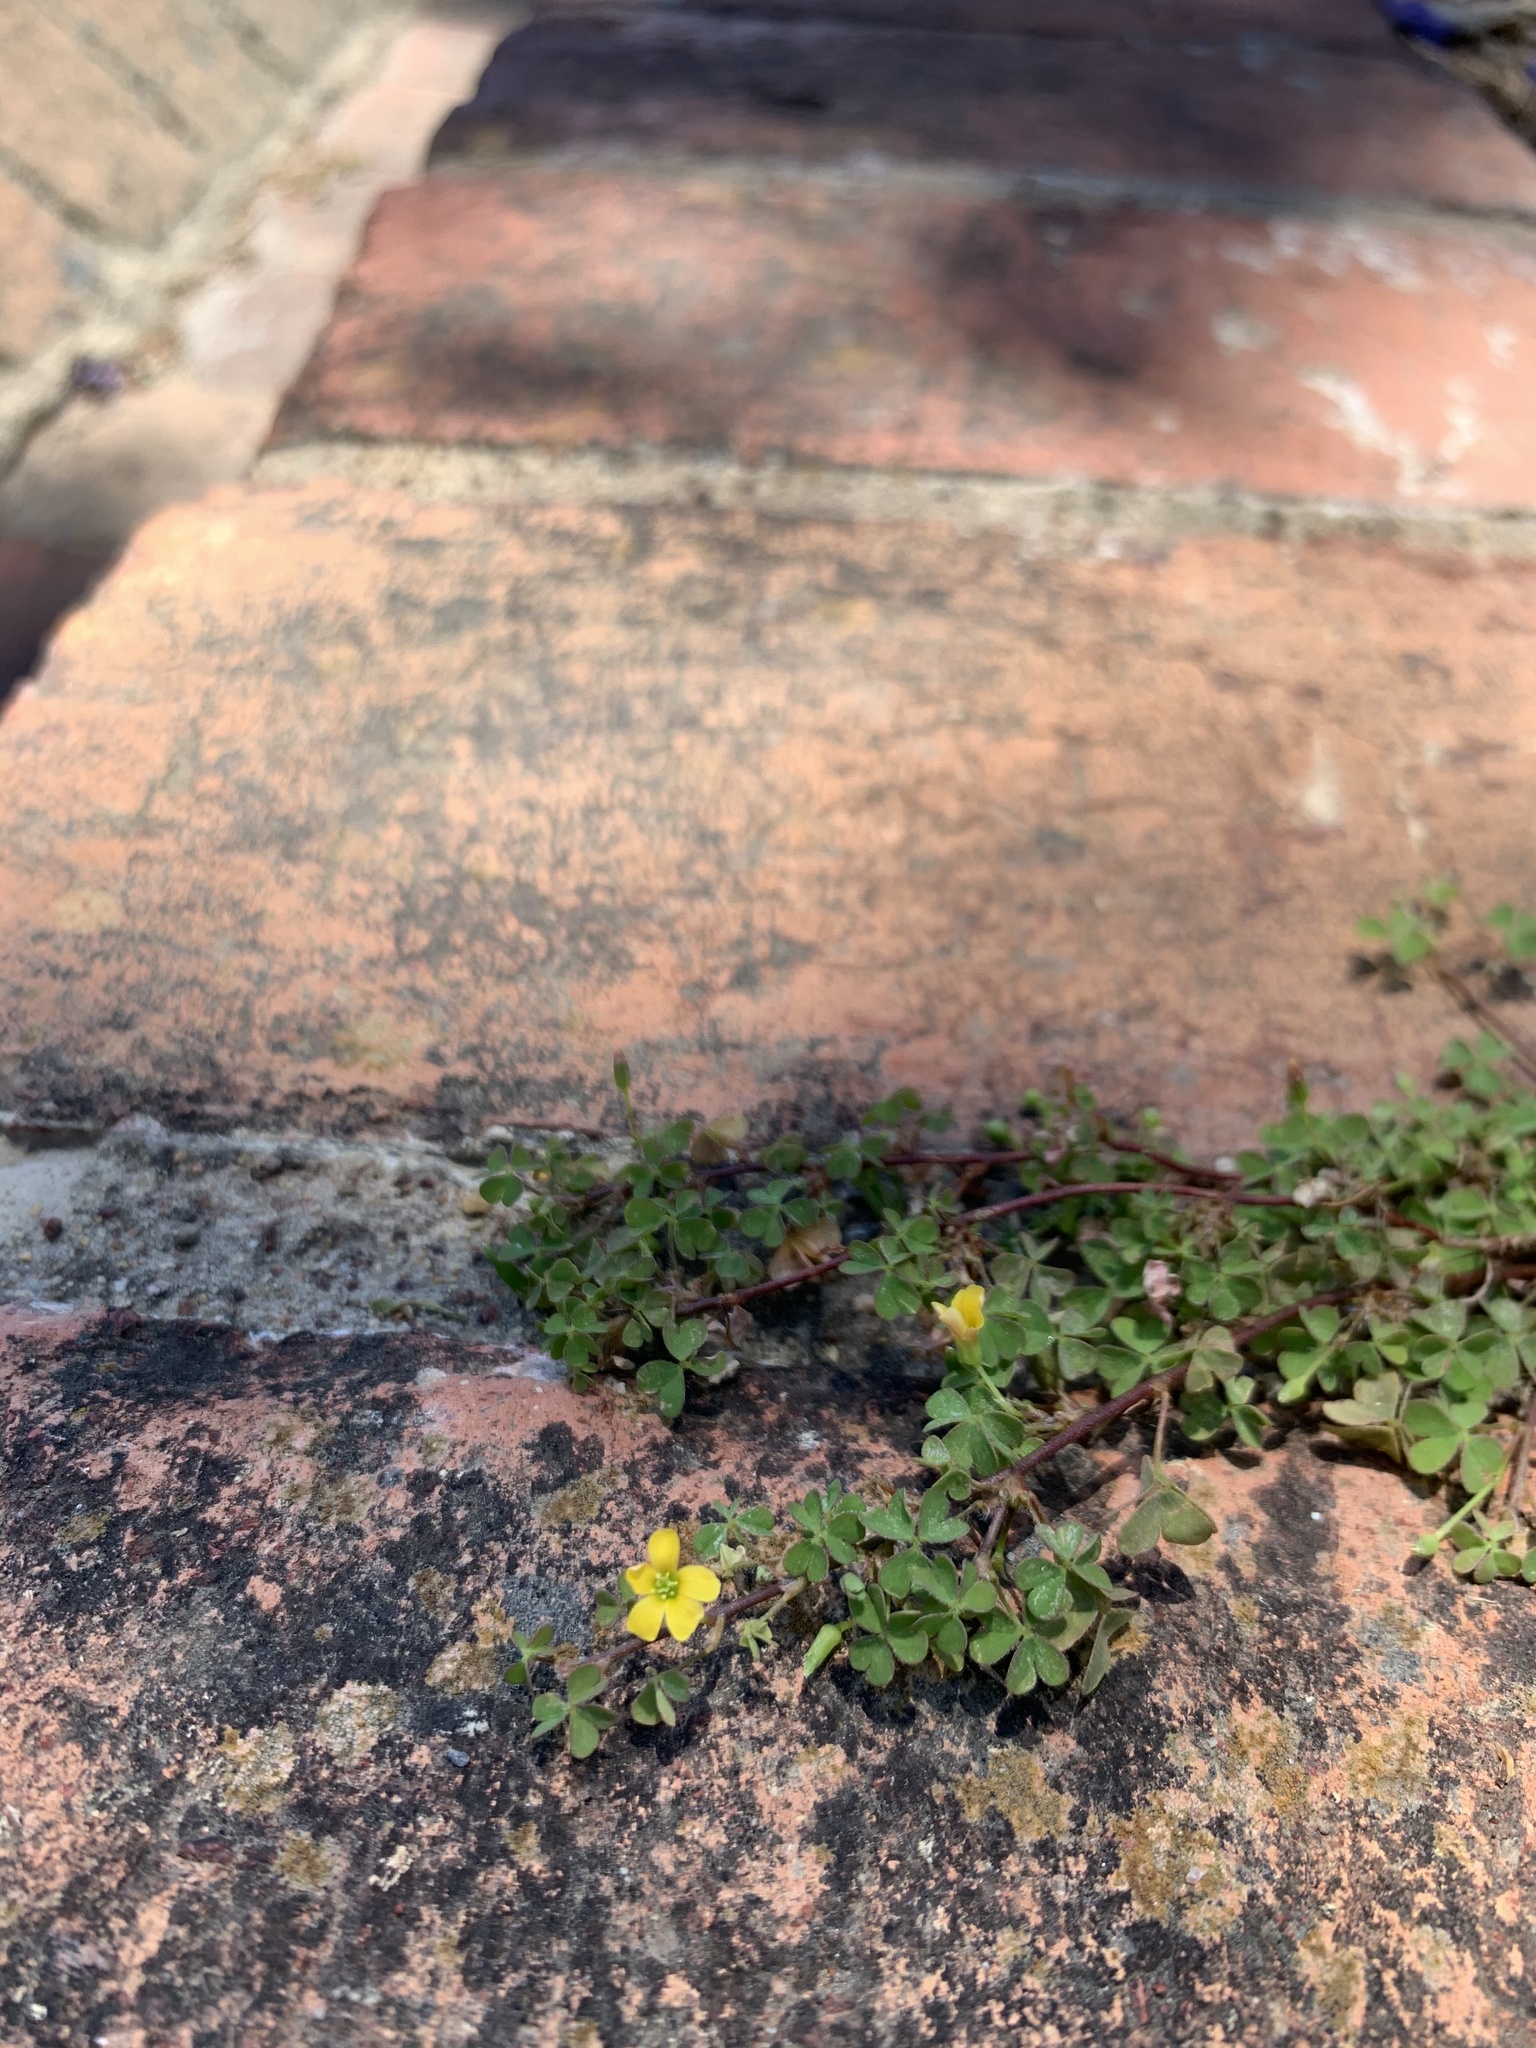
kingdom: Plantae
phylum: Tracheophyta
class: Magnoliopsida
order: Oxalidales
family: Oxalidaceae
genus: Oxalis
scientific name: Oxalis corniculata
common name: Procumbent yellow-sorrel
